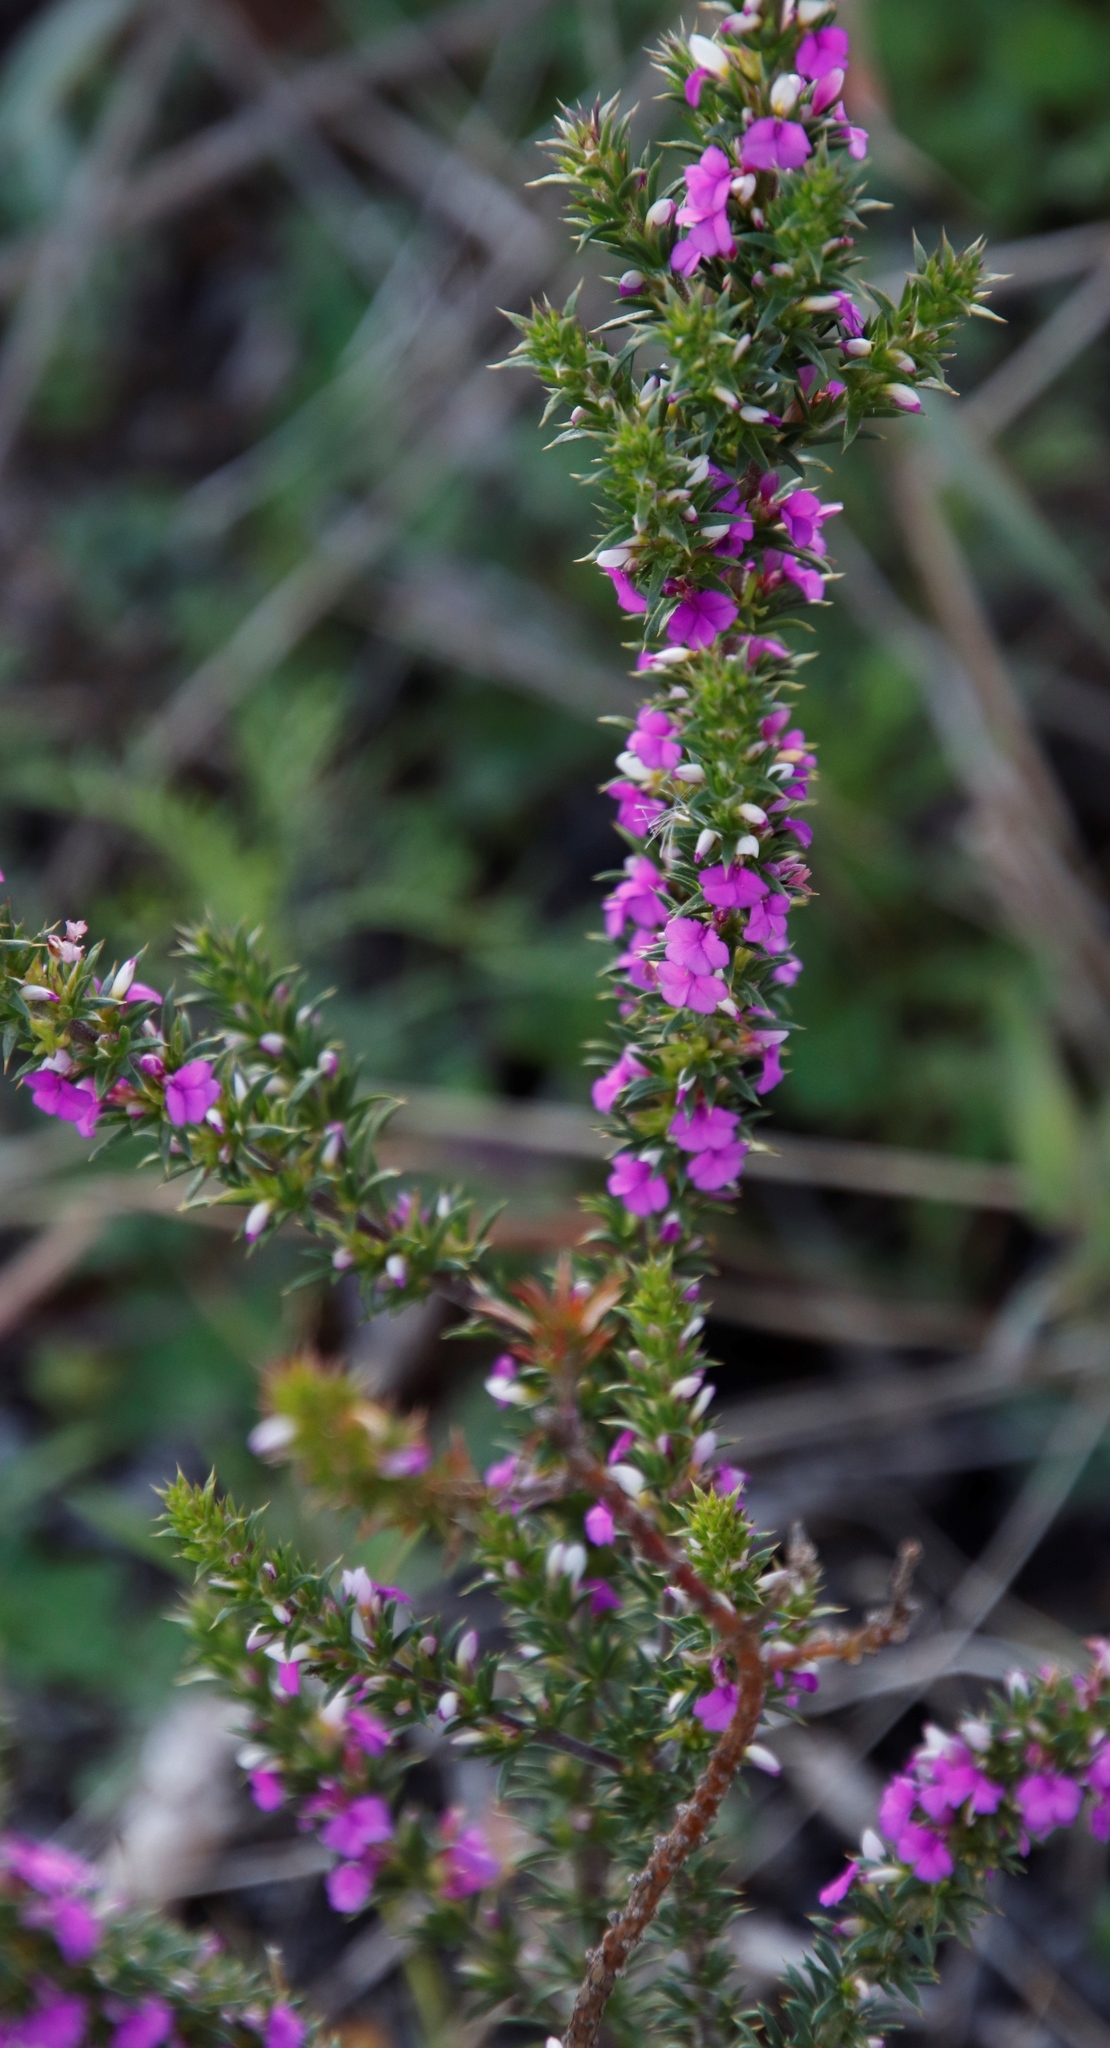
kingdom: Plantae
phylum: Tracheophyta
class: Magnoliopsida
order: Fabales
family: Polygalaceae
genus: Muraltia
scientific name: Muraltia heisteria
